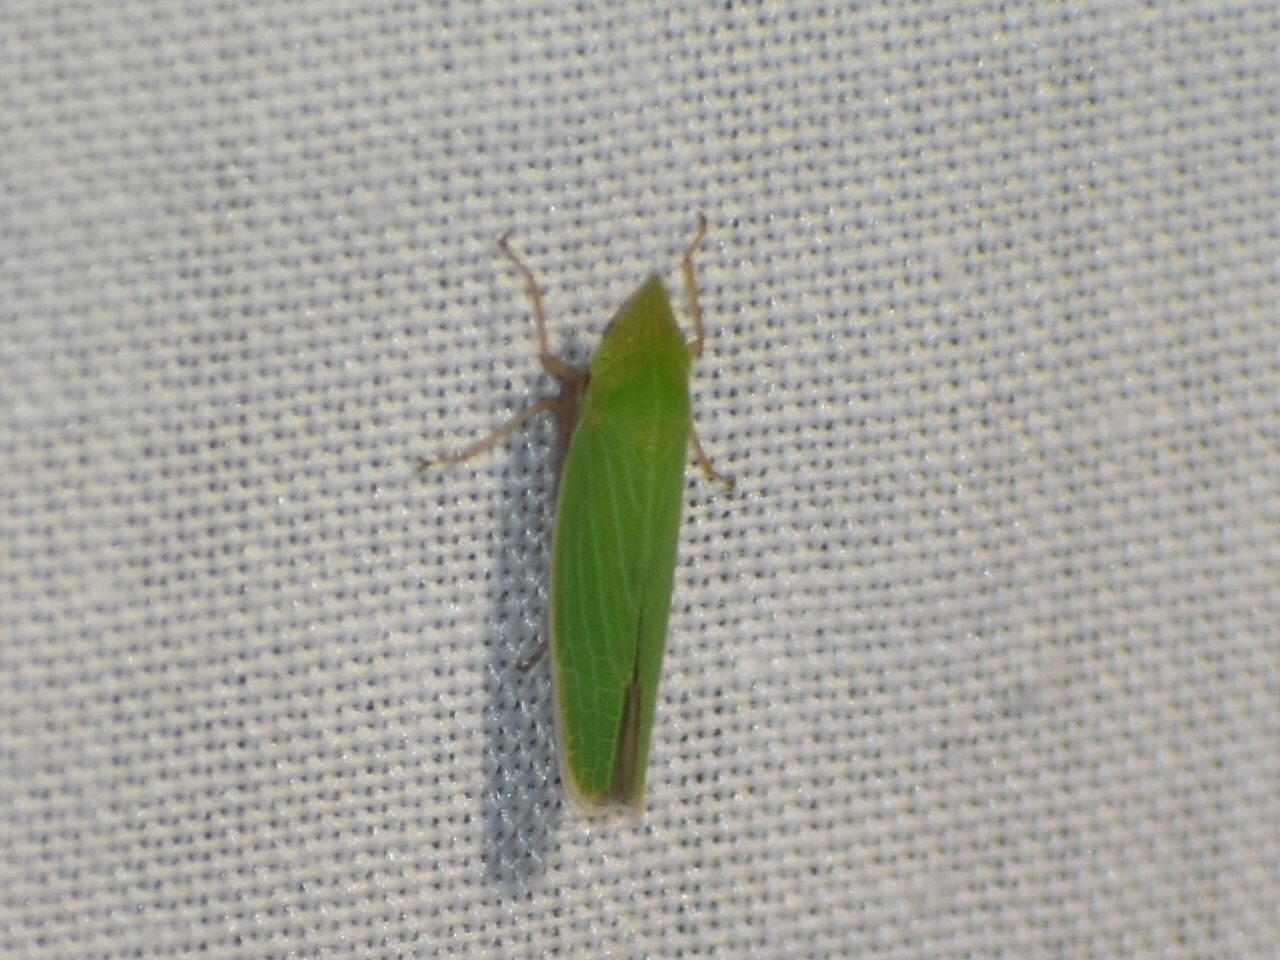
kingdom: Animalia
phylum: Arthropoda
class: Insecta
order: Hemiptera
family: Cicadellidae
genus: Draeculacephala
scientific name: Draeculacephala
